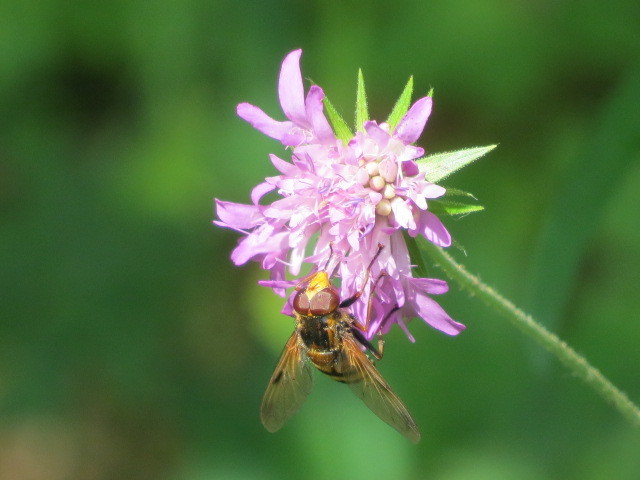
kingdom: Animalia
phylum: Arthropoda
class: Insecta
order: Diptera
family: Syrphidae
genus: Volucella
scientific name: Volucella inanis
